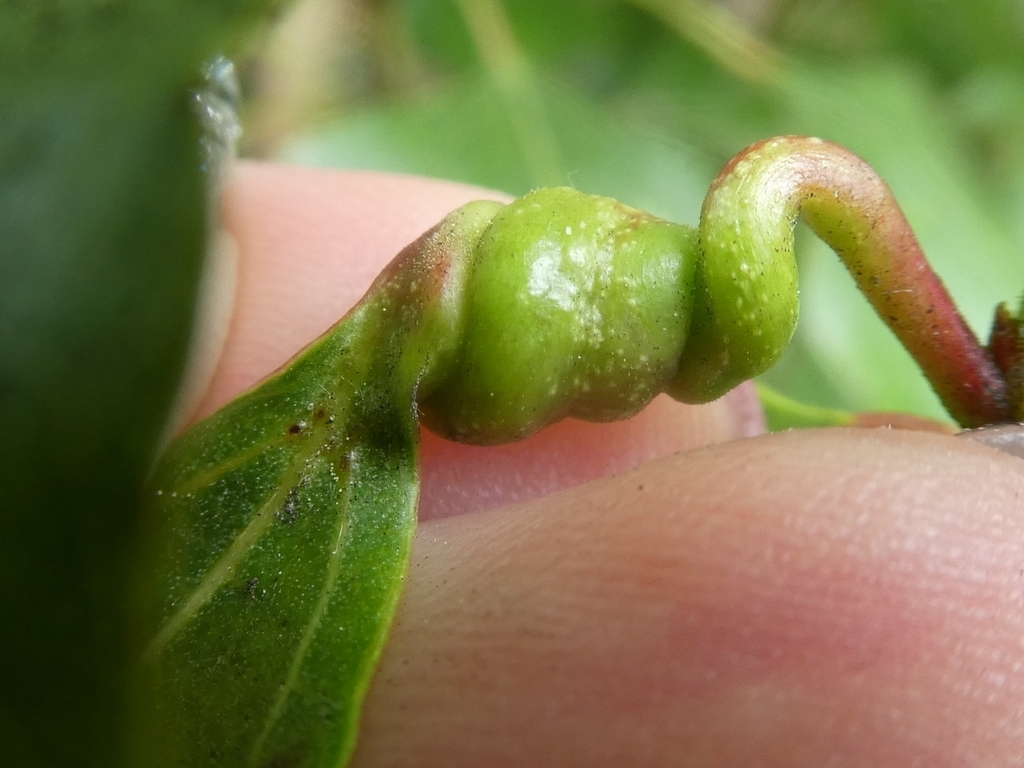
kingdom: Animalia
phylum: Arthropoda
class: Insecta
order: Hemiptera
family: Aphididae
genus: Pemphigus
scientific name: Pemphigus spyrothecae
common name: Aphid
